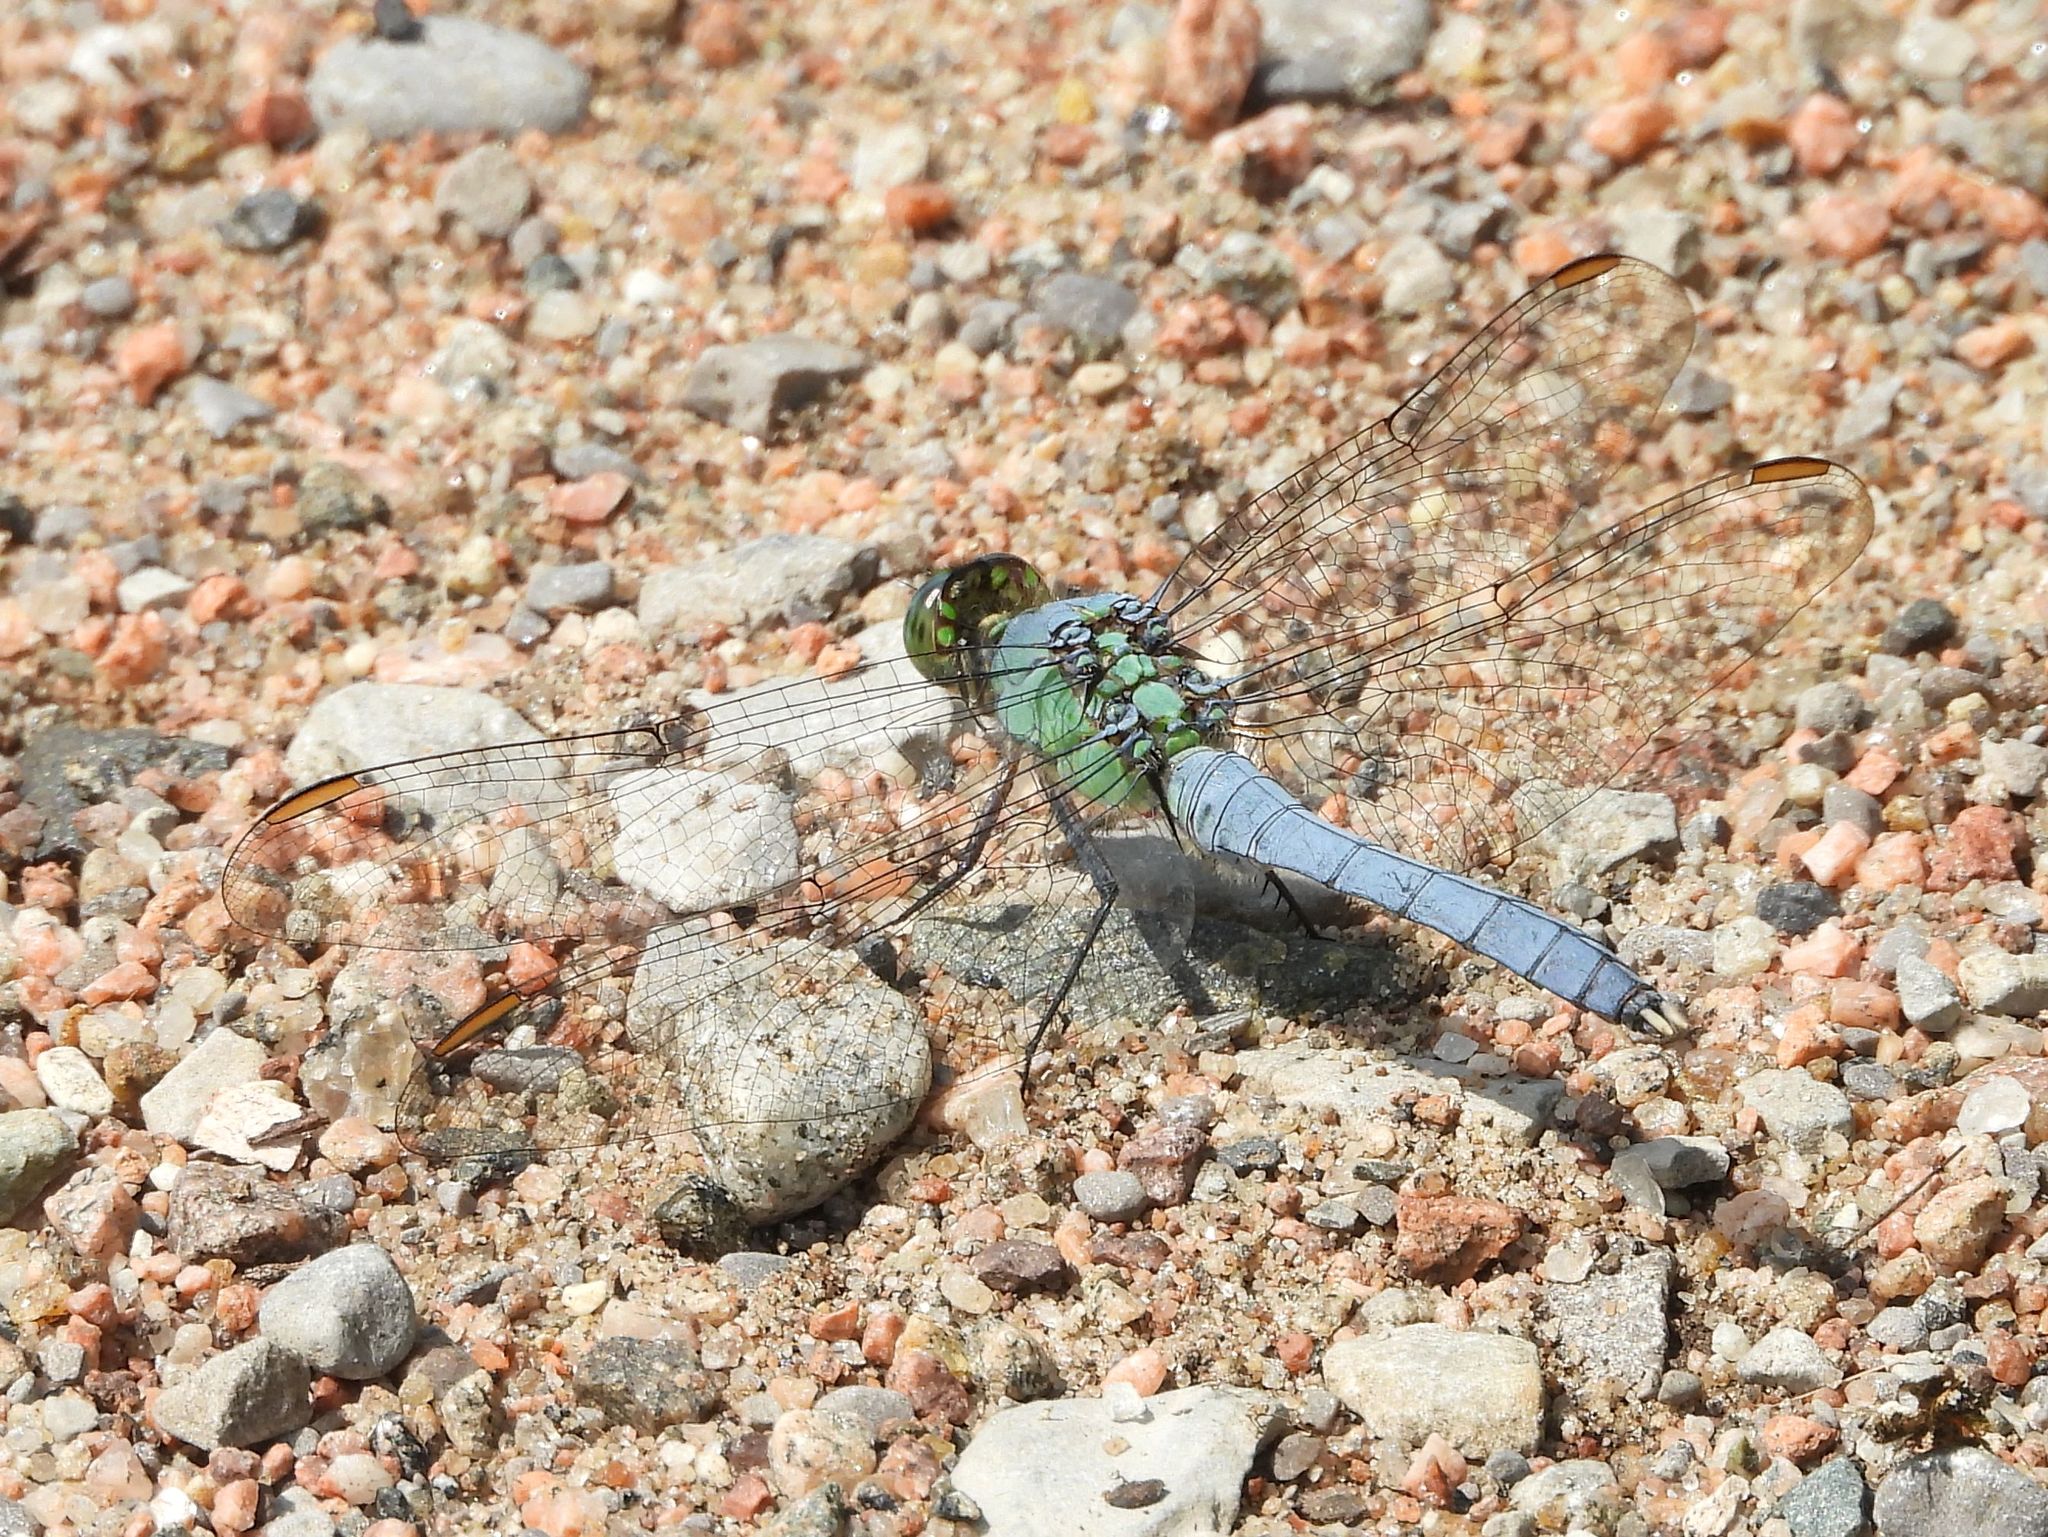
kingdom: Animalia
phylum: Arthropoda
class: Insecta
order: Odonata
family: Libellulidae
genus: Erythemis
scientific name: Erythemis simplicicollis
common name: Eastern pondhawk
